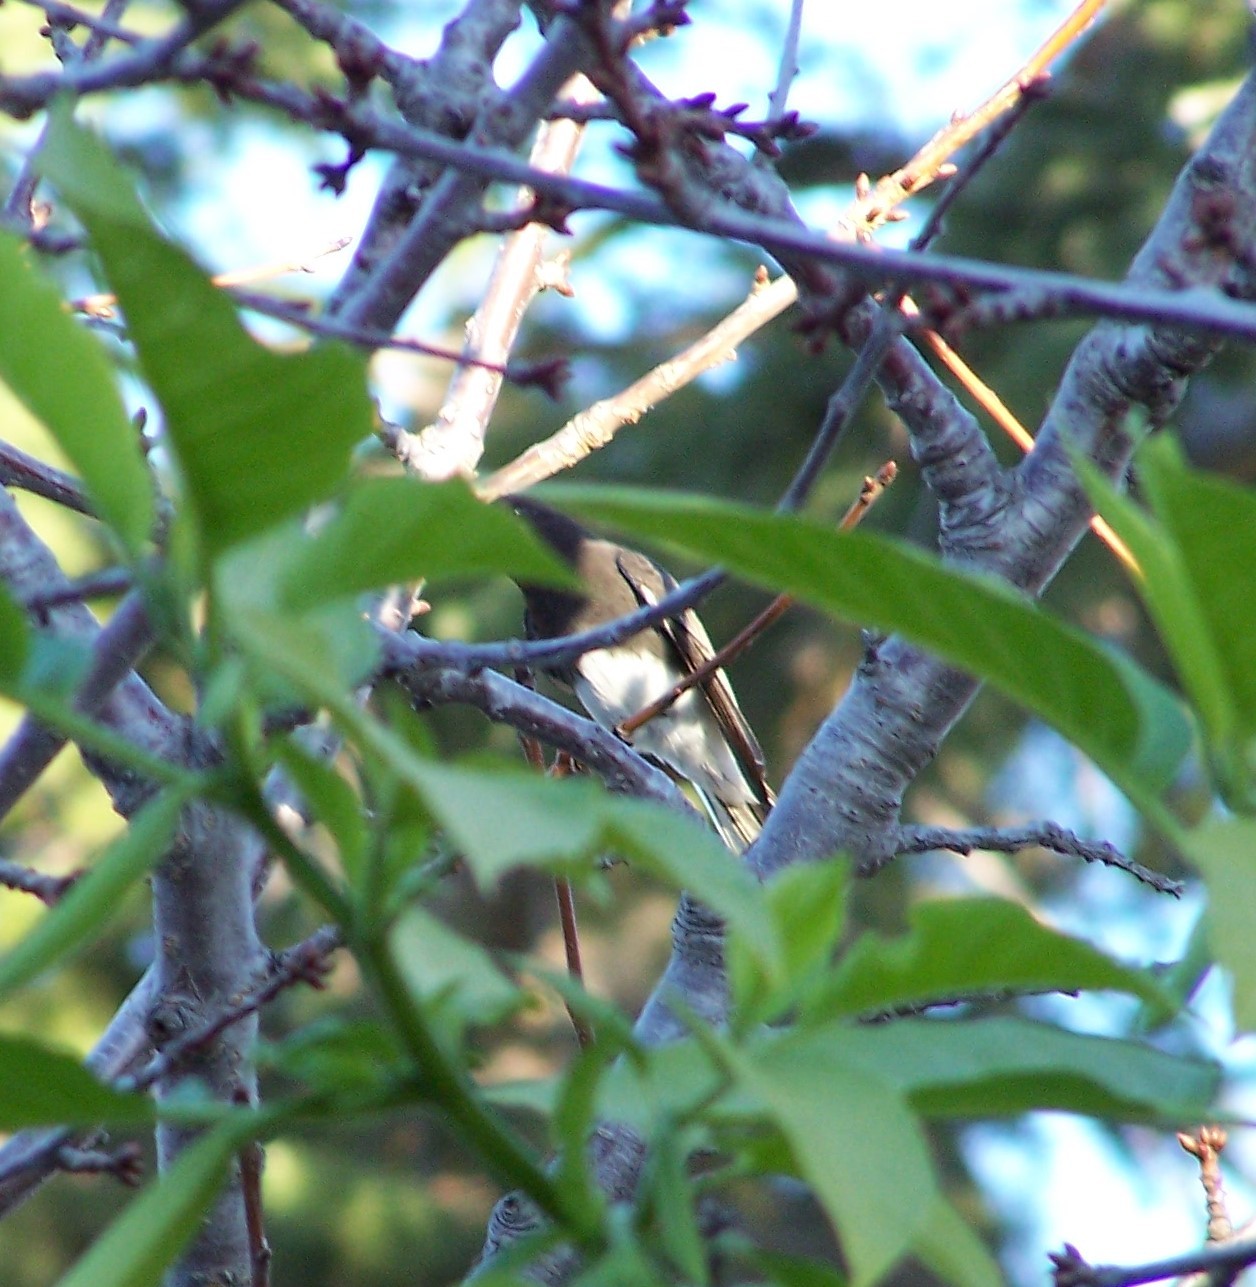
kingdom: Animalia
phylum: Chordata
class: Aves
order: Passeriformes
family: Tyrannidae
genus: Sayornis
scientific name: Sayornis nigricans
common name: Black phoebe
